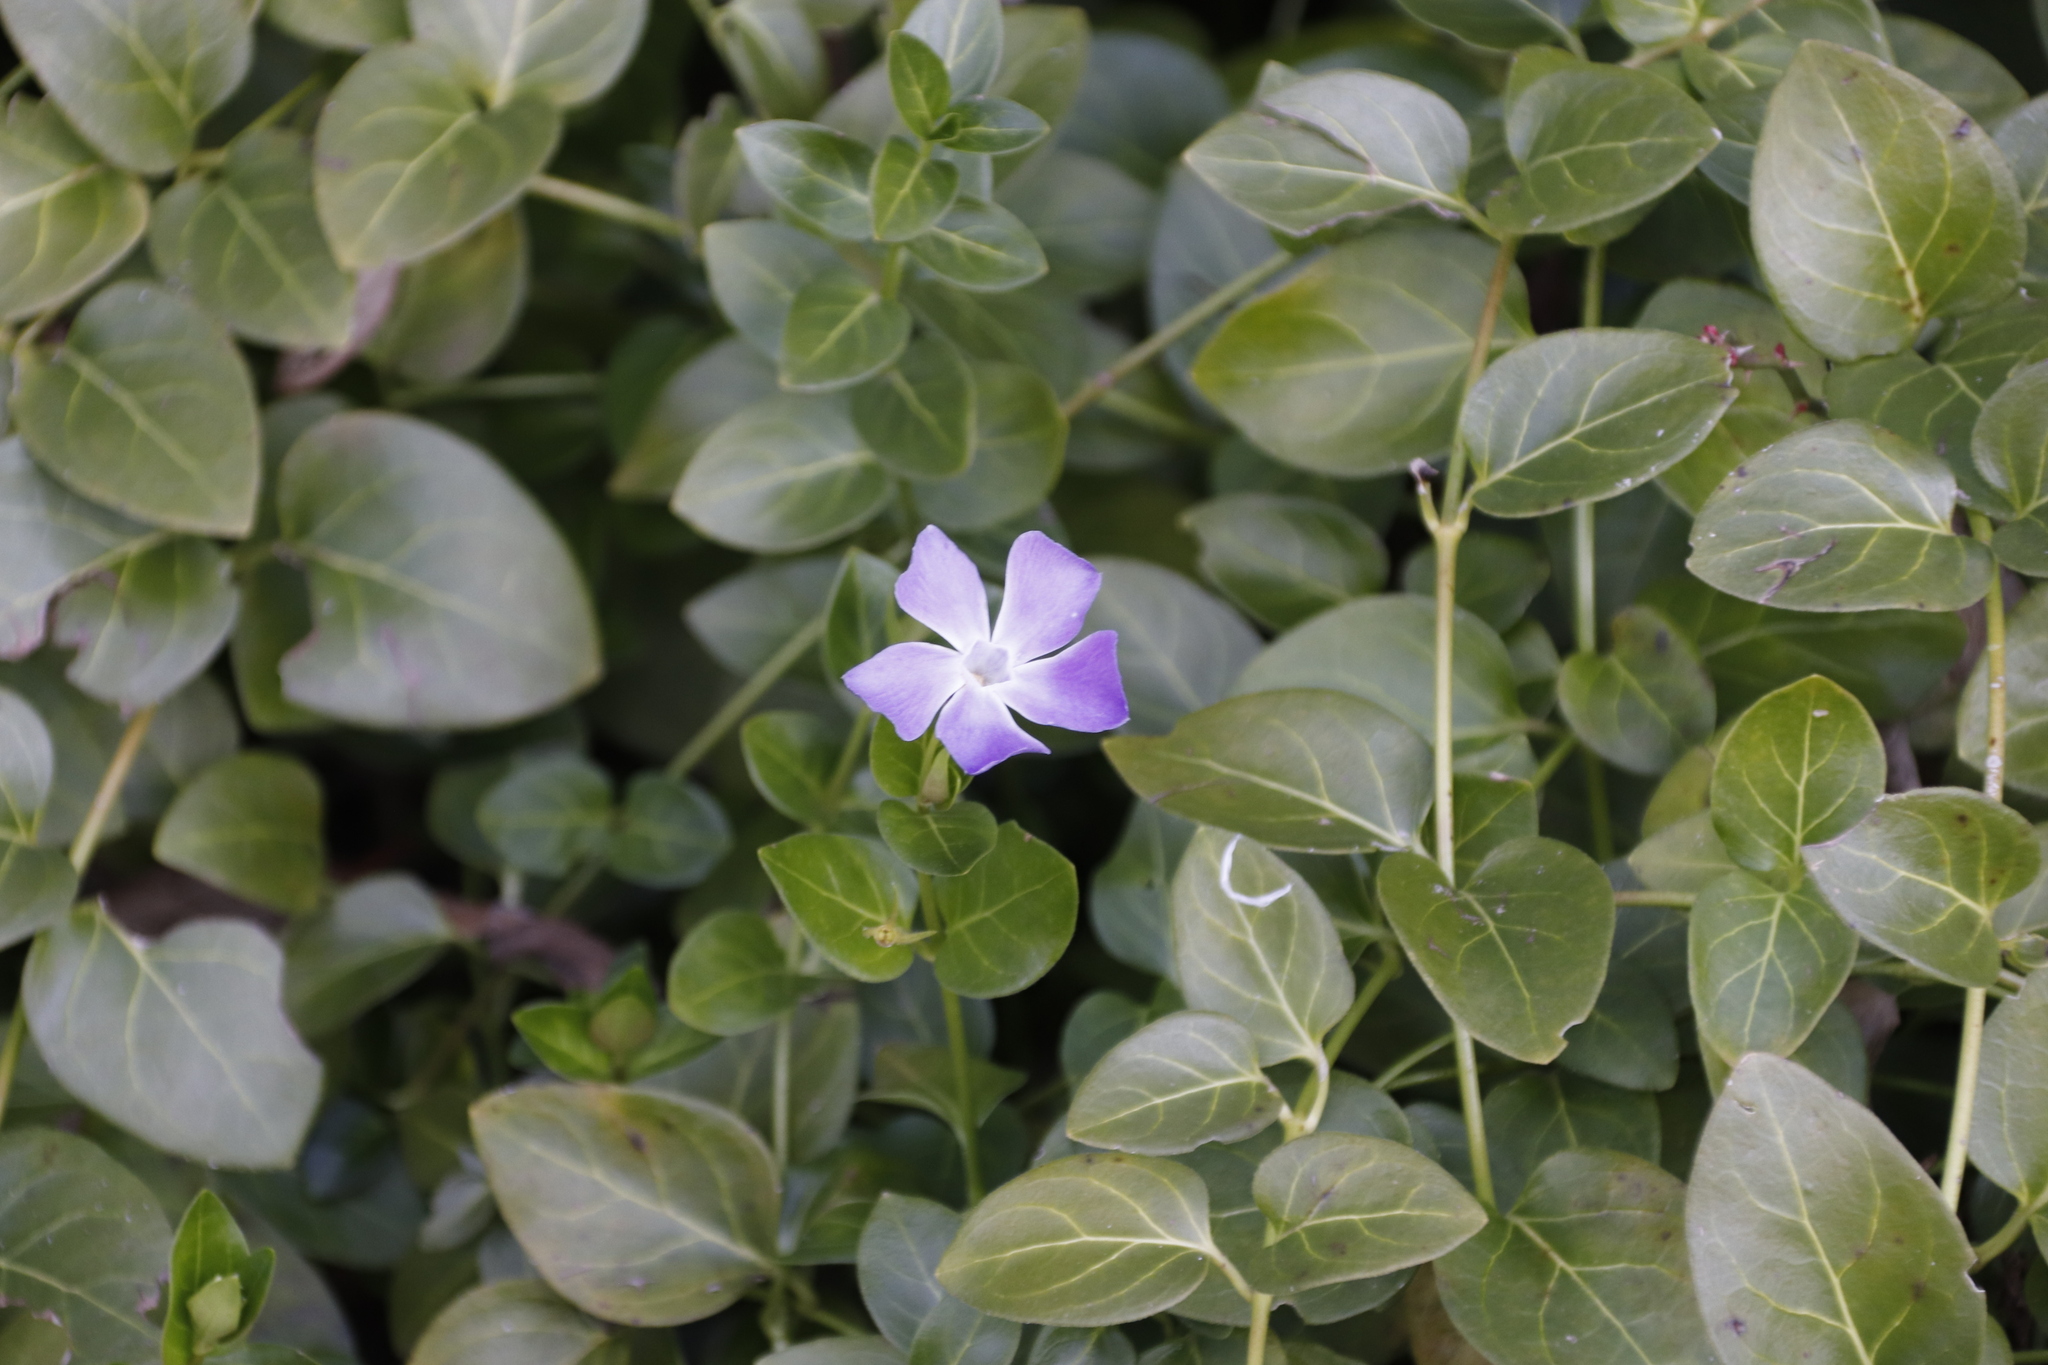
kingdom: Plantae
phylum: Tracheophyta
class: Magnoliopsida
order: Gentianales
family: Apocynaceae
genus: Vinca
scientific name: Vinca major
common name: Greater periwinkle
